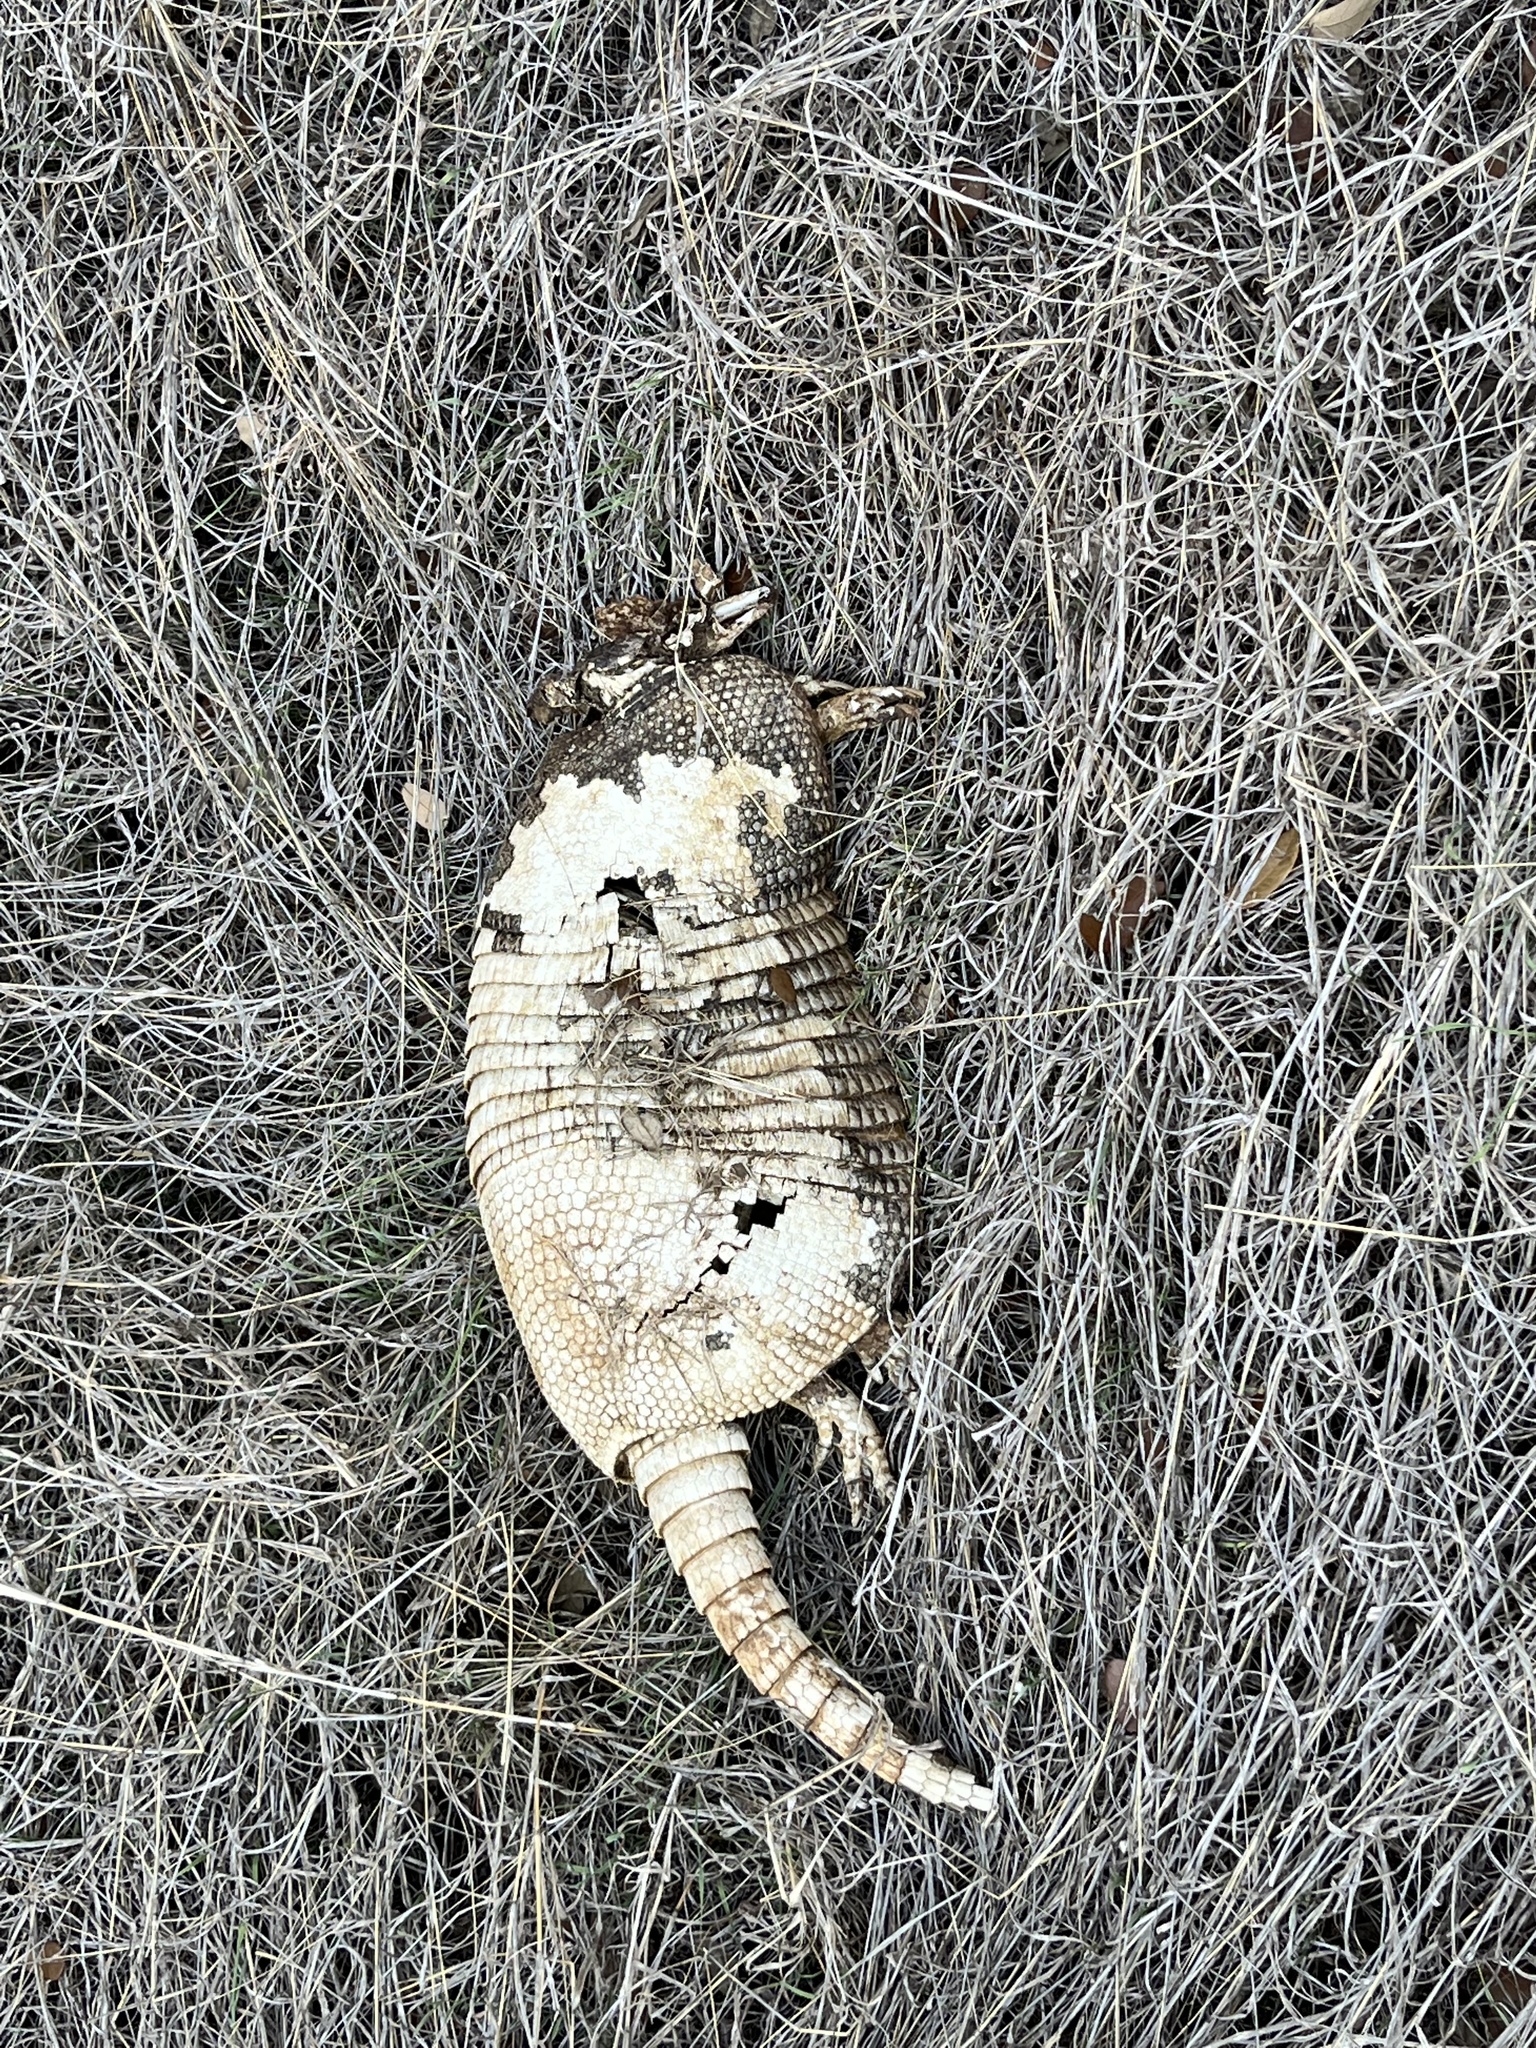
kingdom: Animalia
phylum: Chordata
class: Mammalia
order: Cingulata
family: Dasypodidae
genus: Dasypus
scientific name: Dasypus novemcinctus
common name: Nine-banded armadillo
